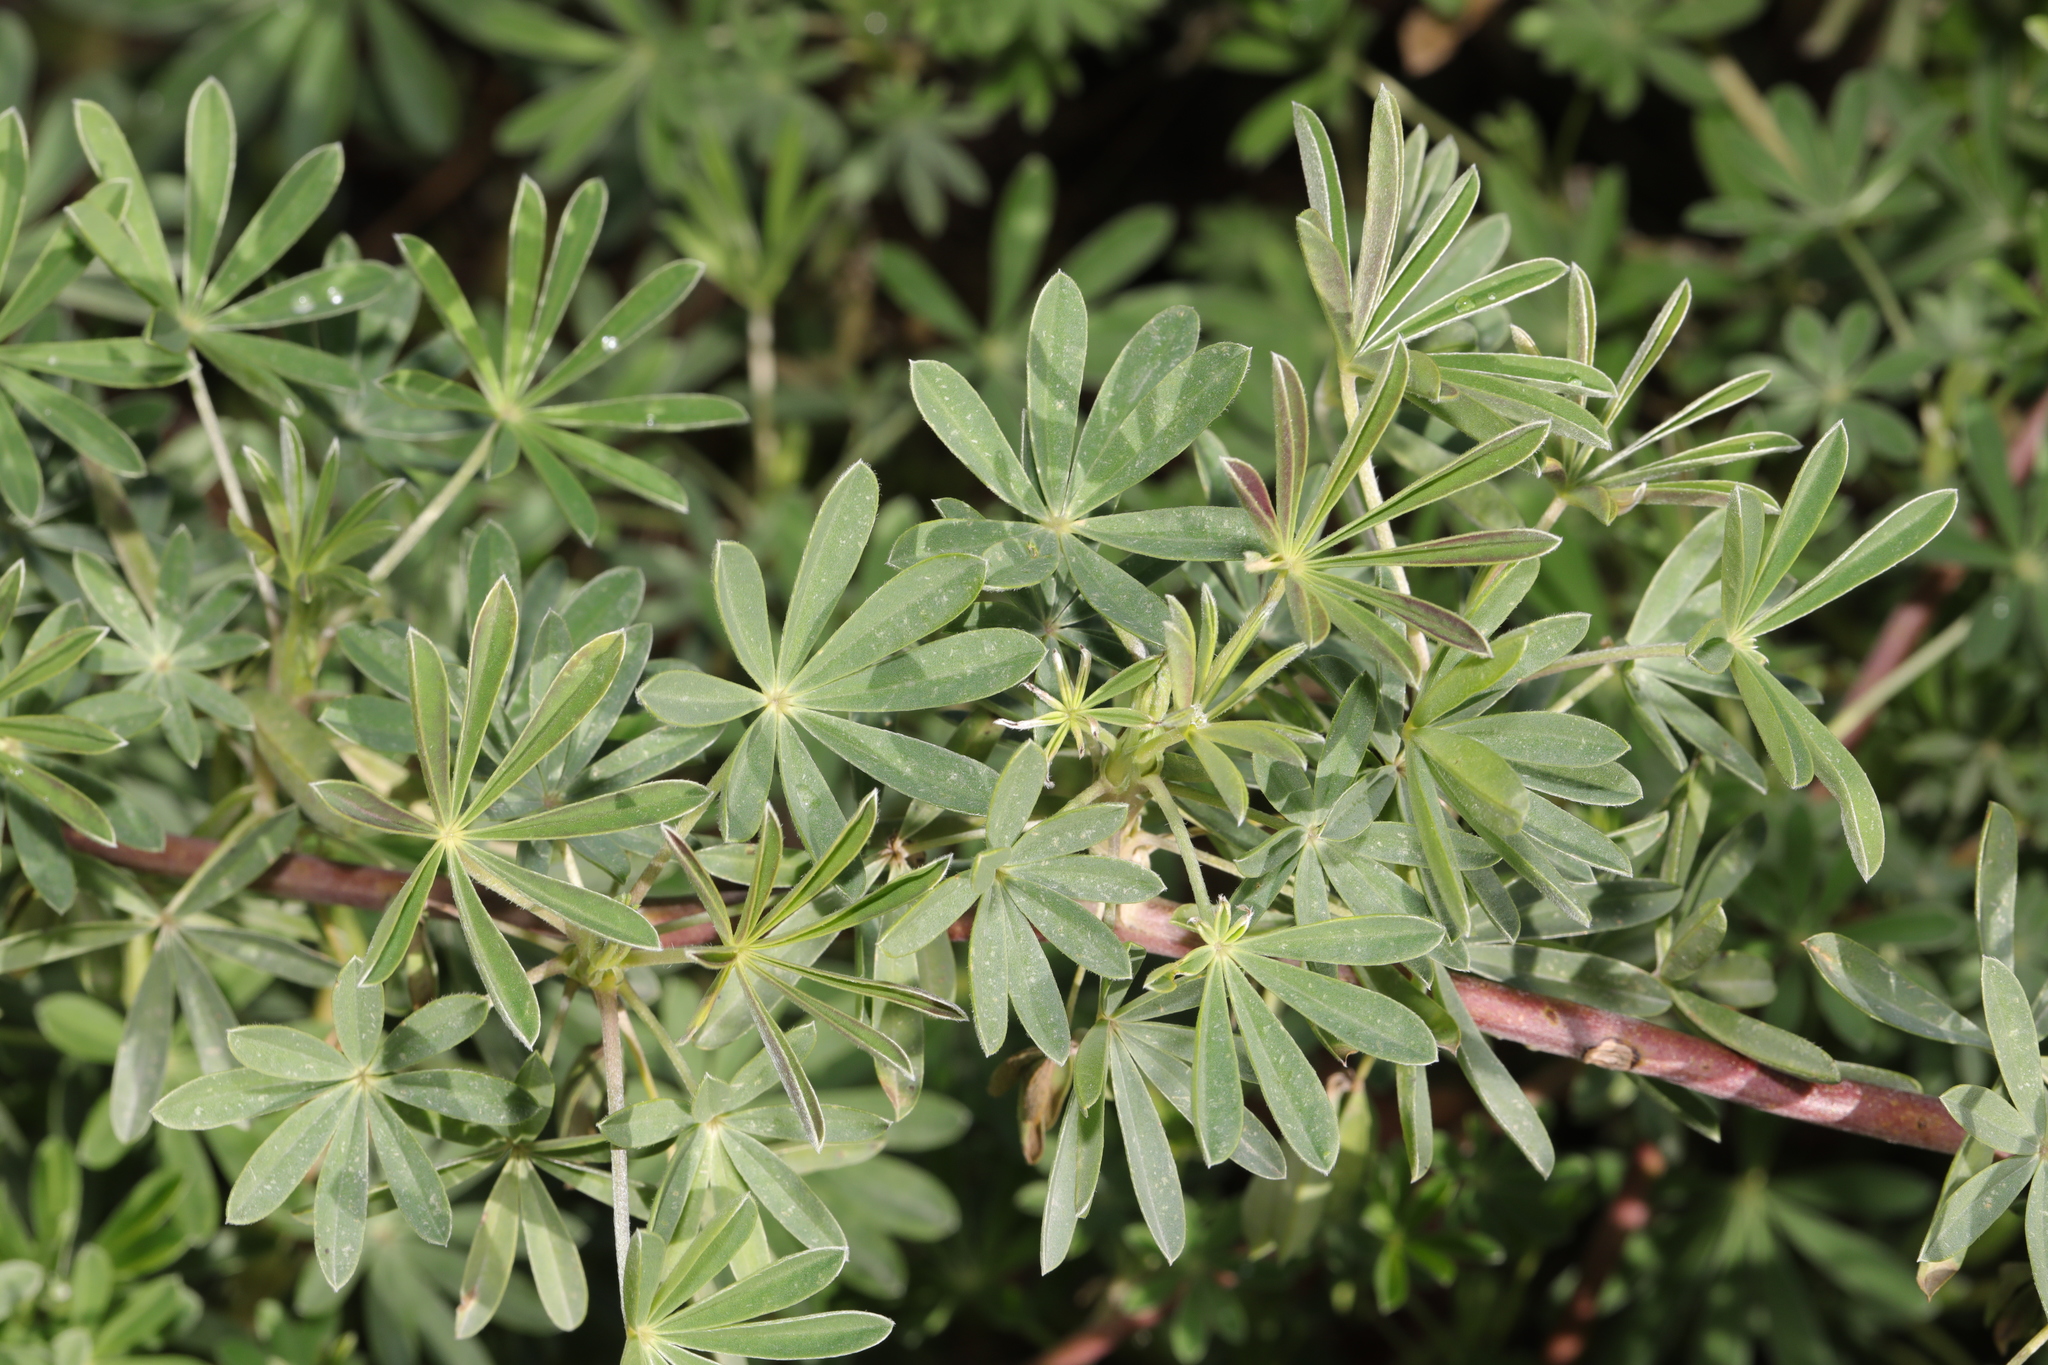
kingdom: Plantae
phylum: Tracheophyta
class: Magnoliopsida
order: Fabales
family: Fabaceae
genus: Lupinus
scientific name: Lupinus arboreus
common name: Yellow bush lupine
